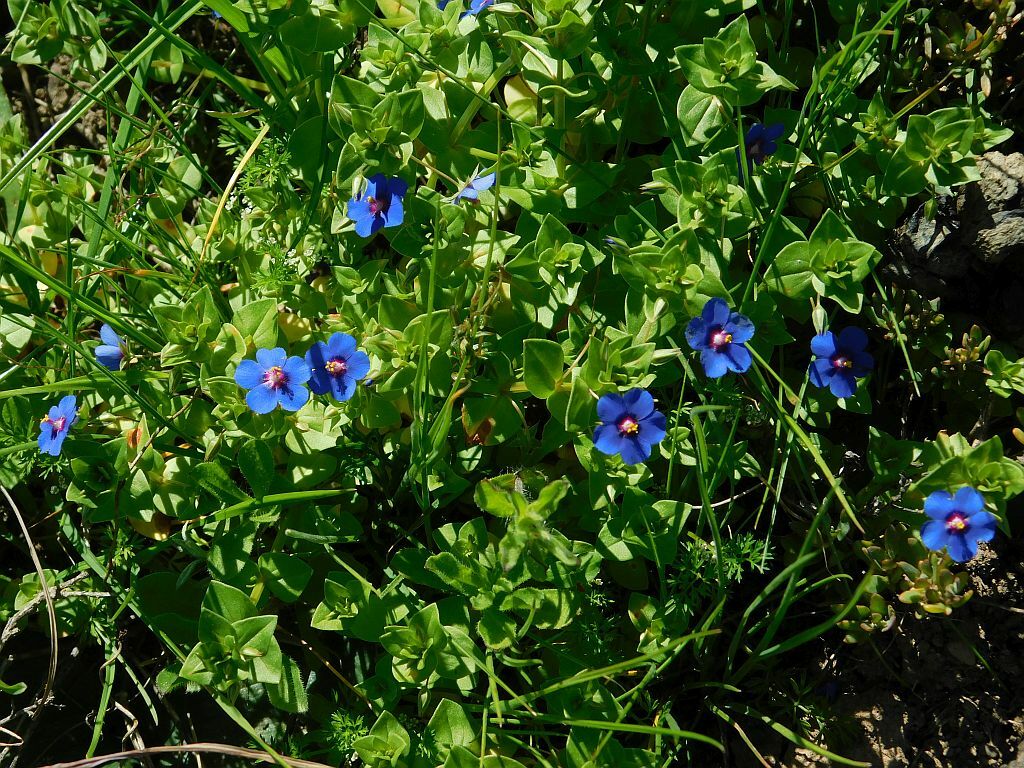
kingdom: Plantae
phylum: Tracheophyta
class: Magnoliopsida
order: Ericales
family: Primulaceae
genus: Lysimachia
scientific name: Lysimachia loeflingii
